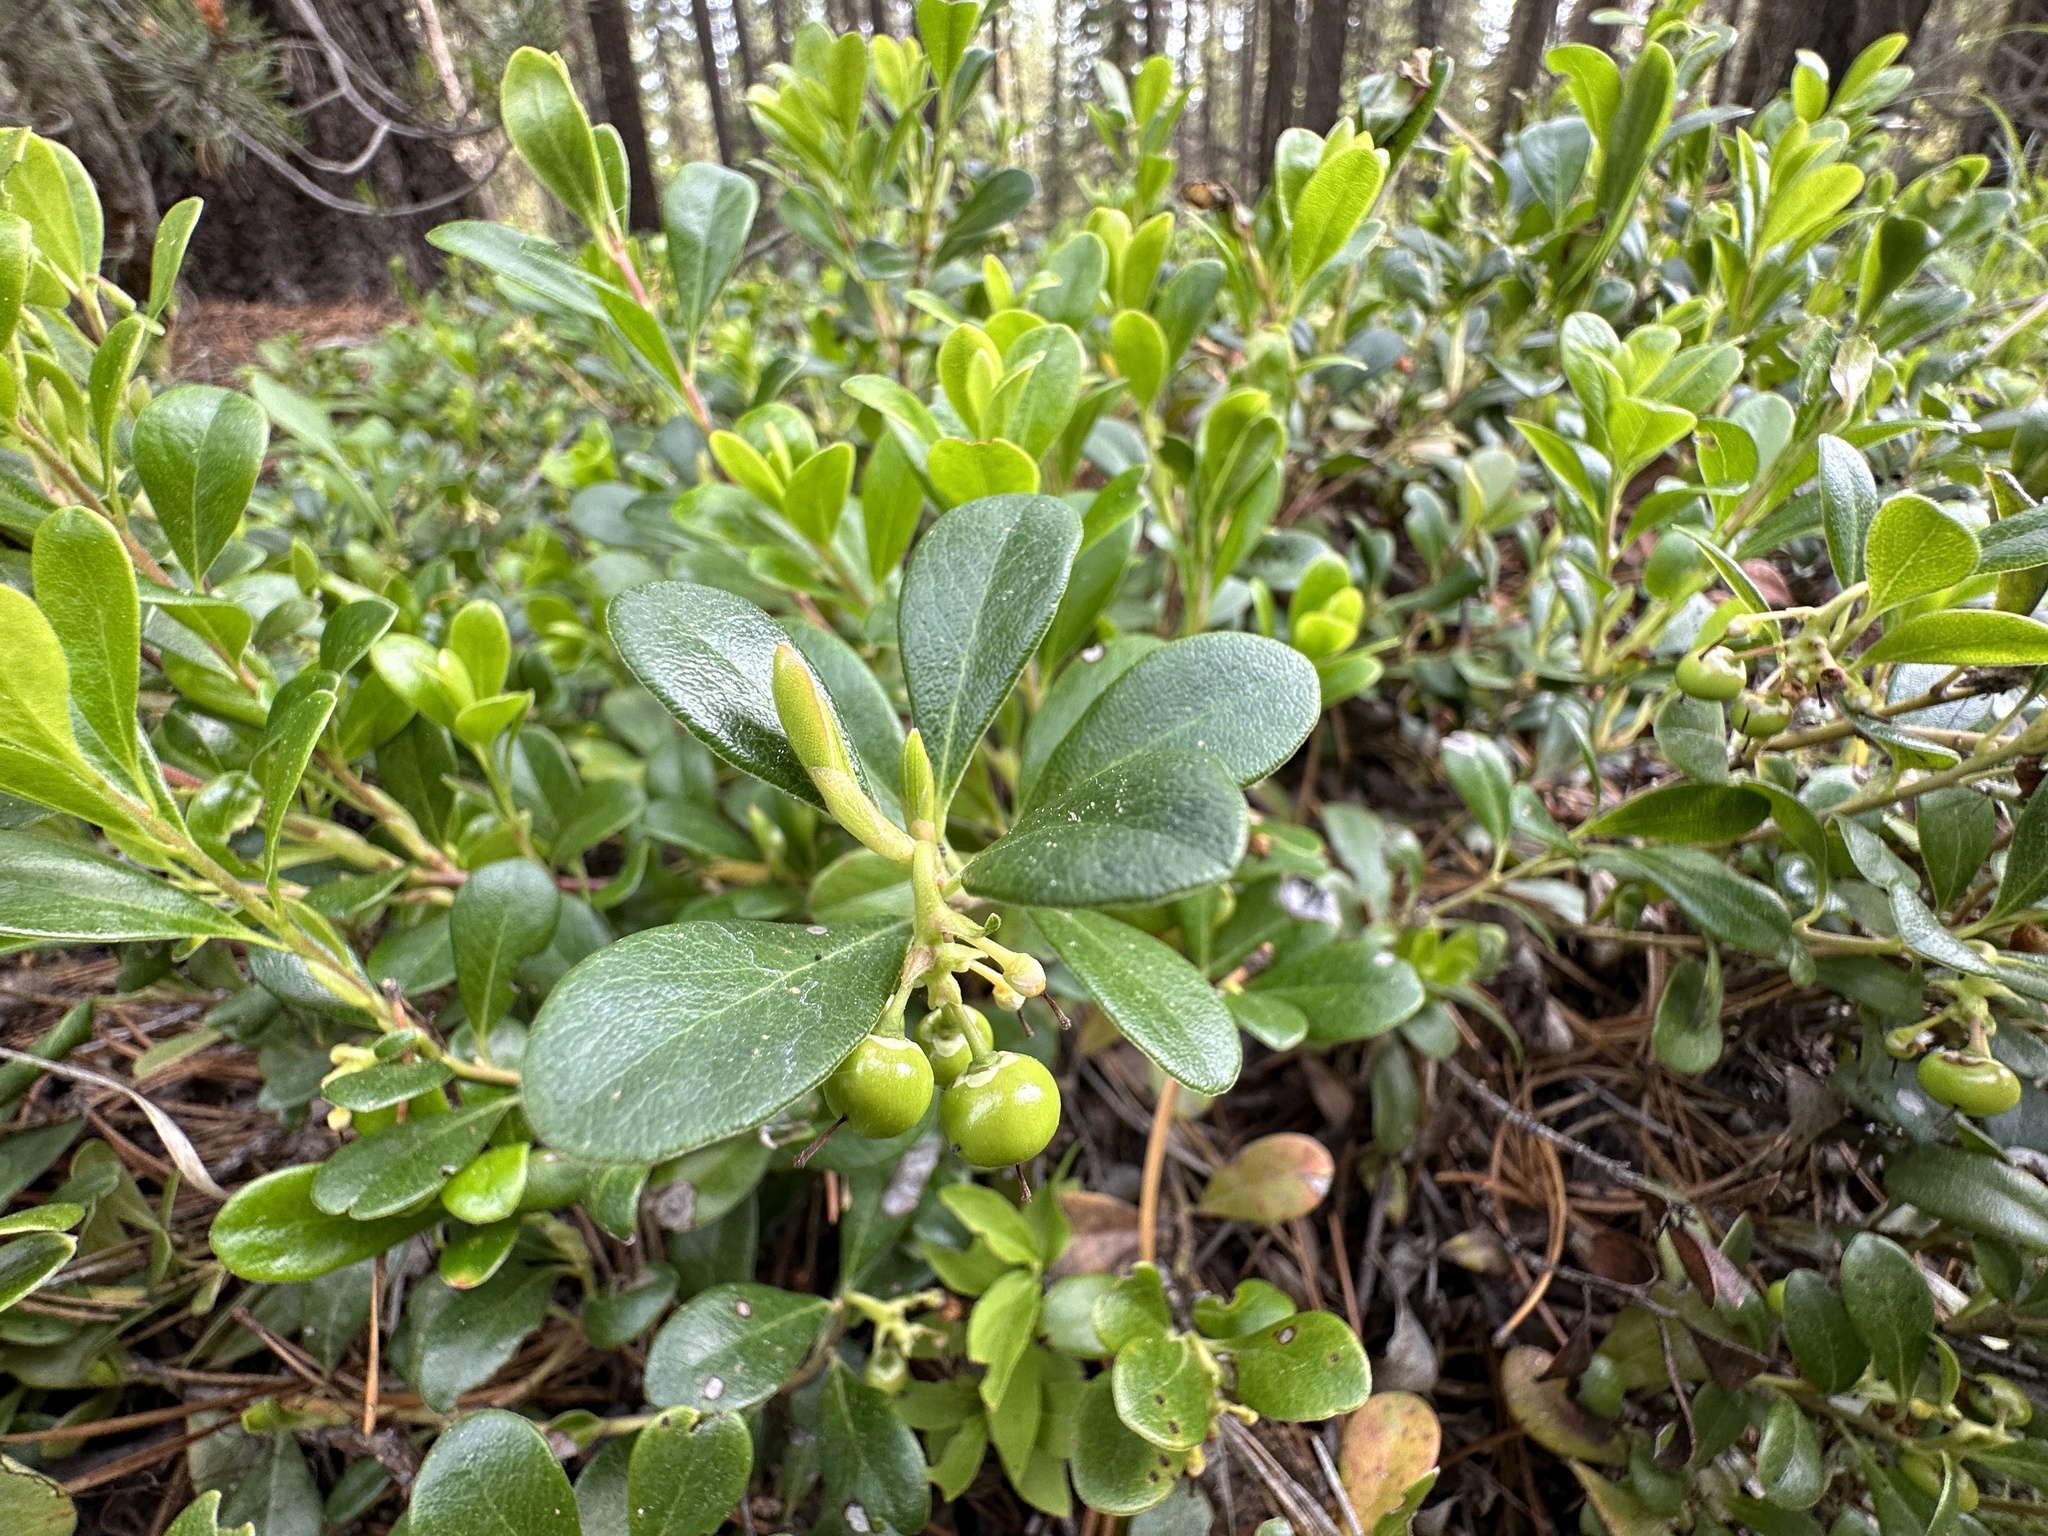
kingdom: Plantae
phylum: Tracheophyta
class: Magnoliopsida
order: Ericales
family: Ericaceae
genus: Arctostaphylos
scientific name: Arctostaphylos uva-ursi
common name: Bearberry
